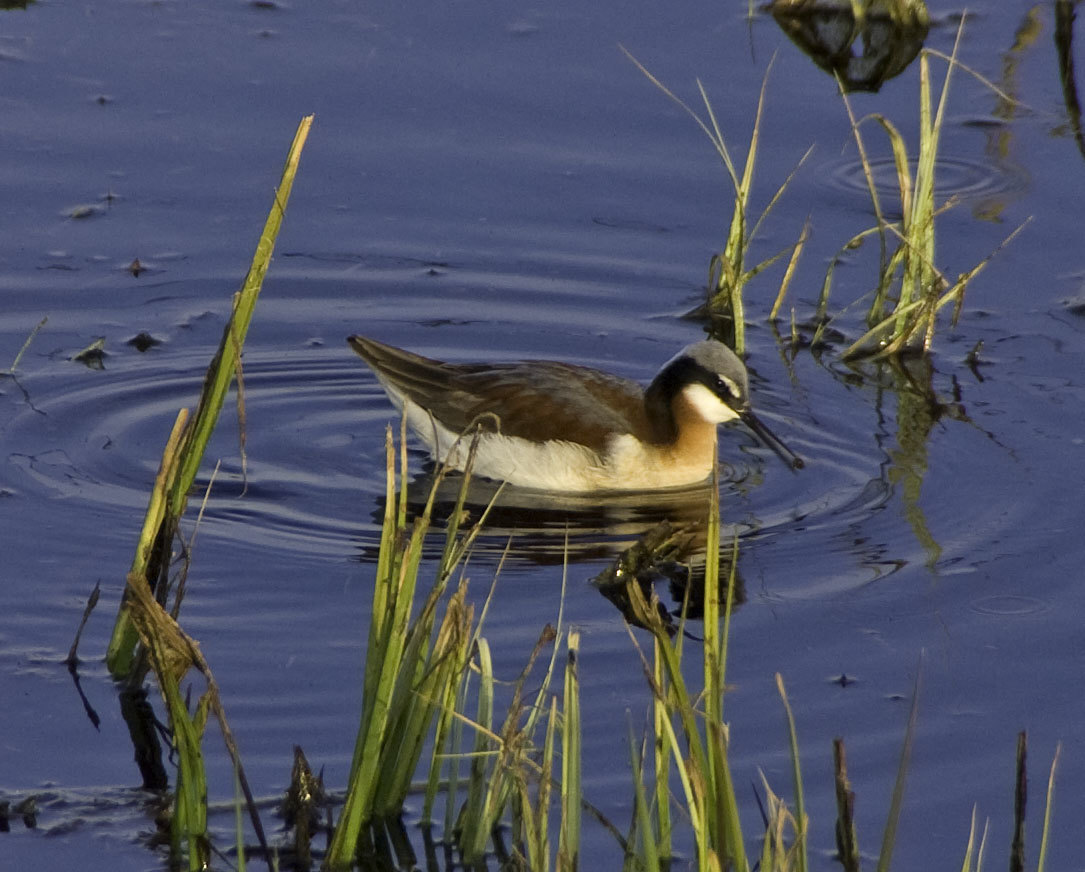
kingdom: Animalia
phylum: Chordata
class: Aves
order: Charadriiformes
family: Scolopacidae
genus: Phalaropus
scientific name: Phalaropus tricolor
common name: Wilson's phalarope
